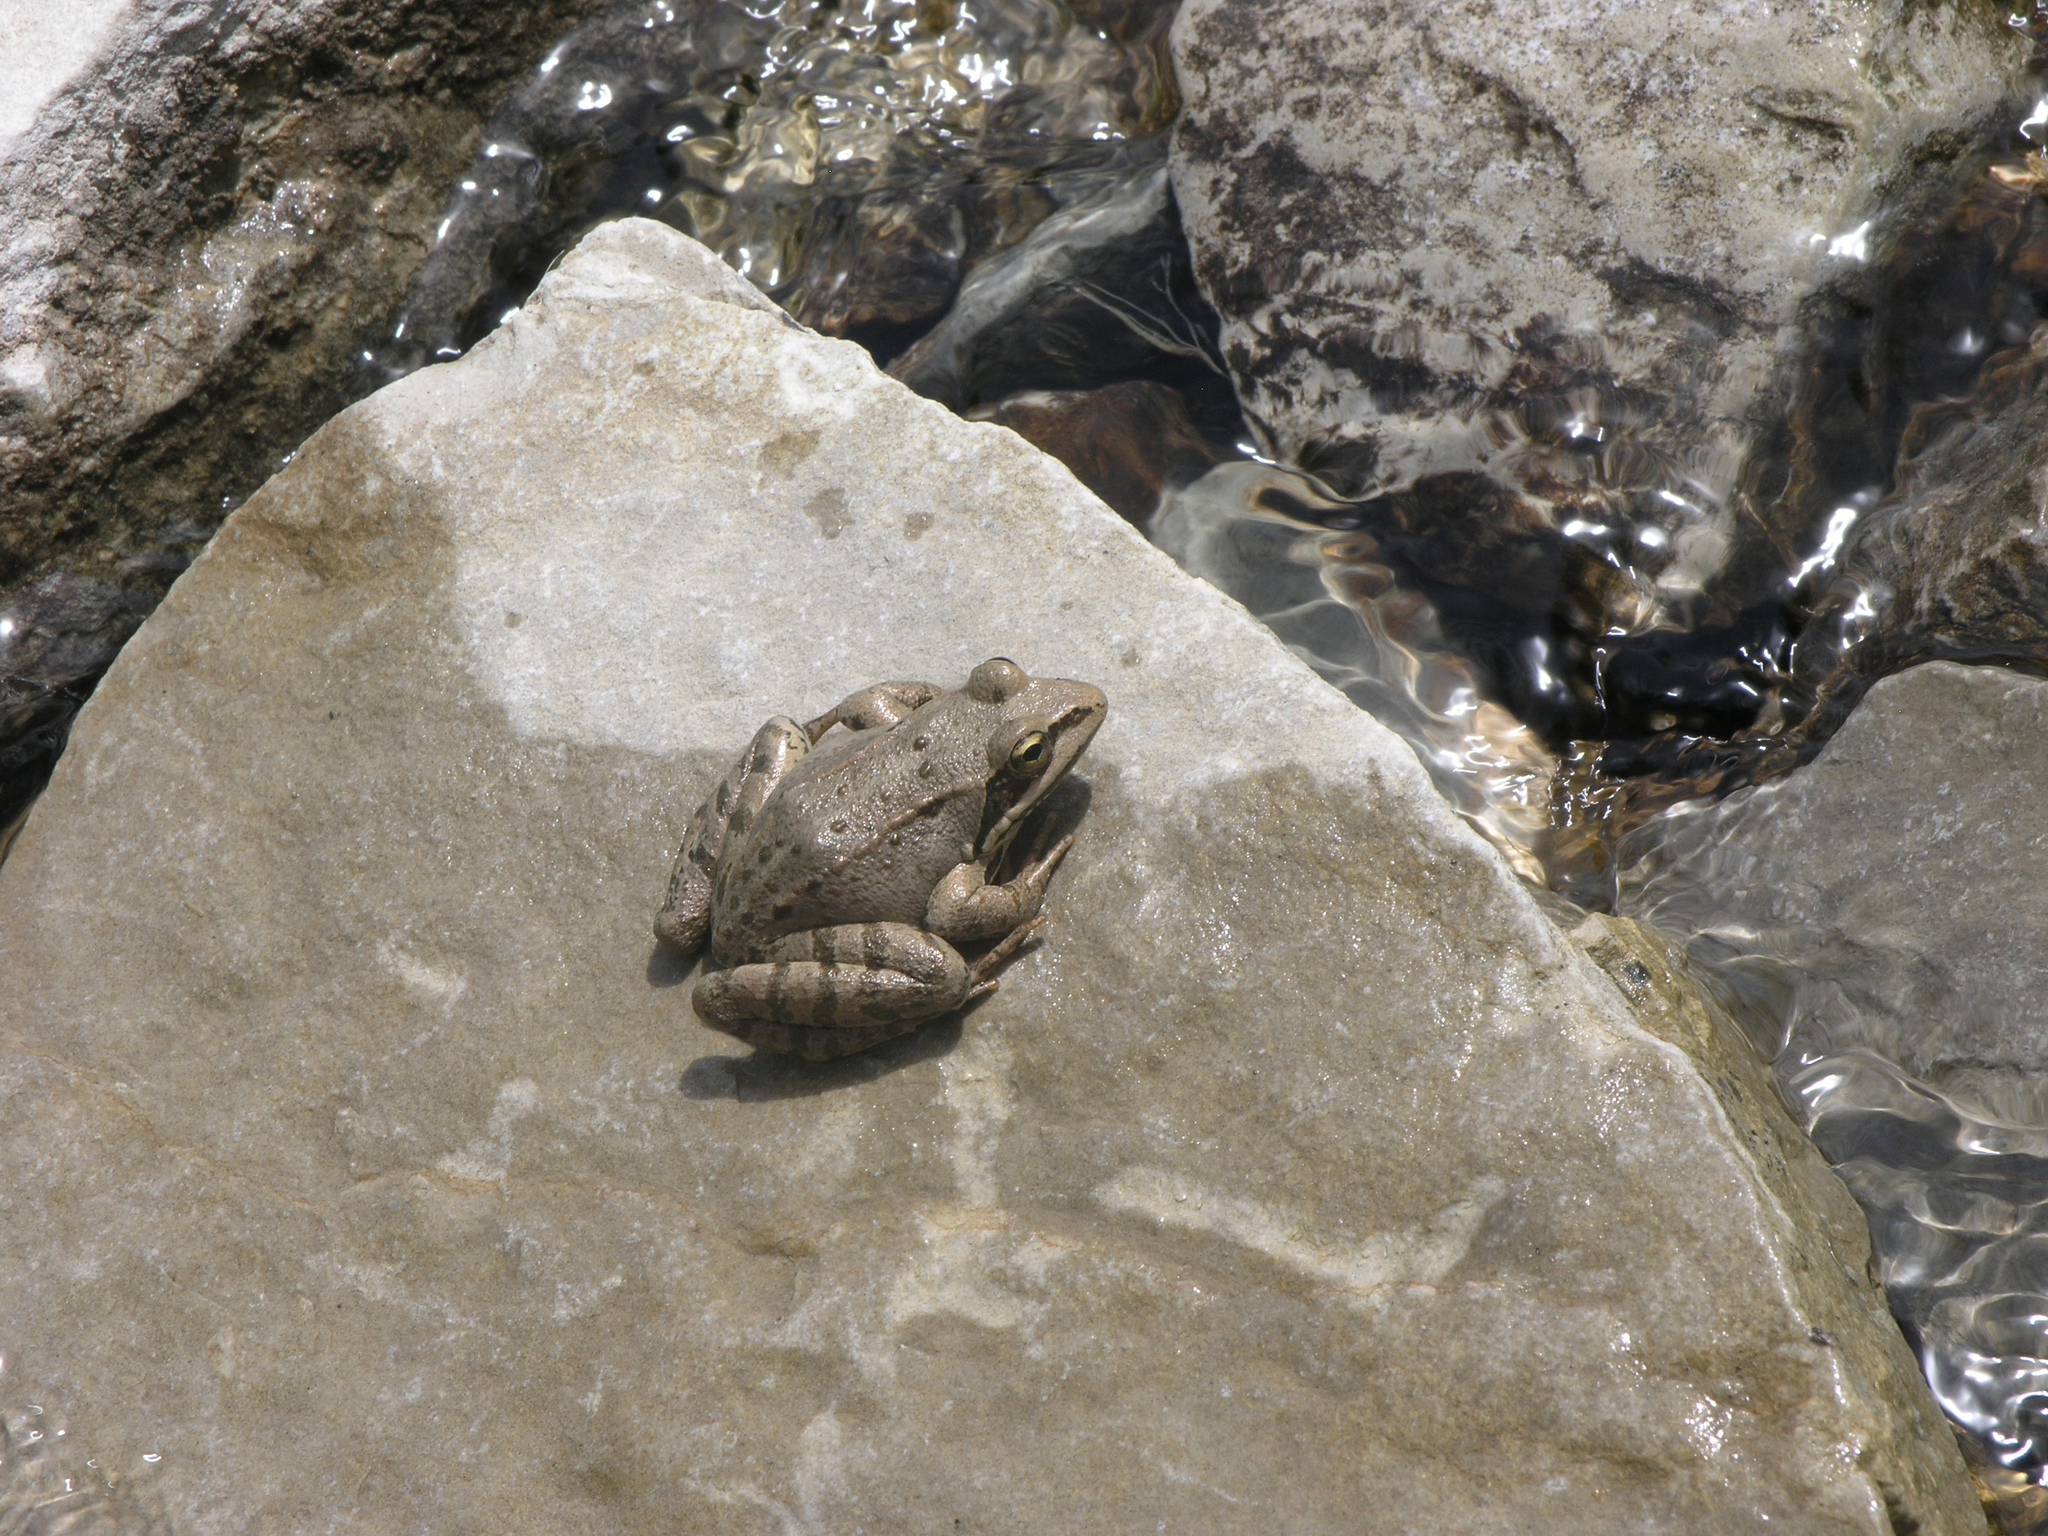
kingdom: Animalia
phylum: Chordata
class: Amphibia
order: Anura
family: Ranidae
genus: Rana
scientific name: Rana macrocnemis
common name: Banded frog
